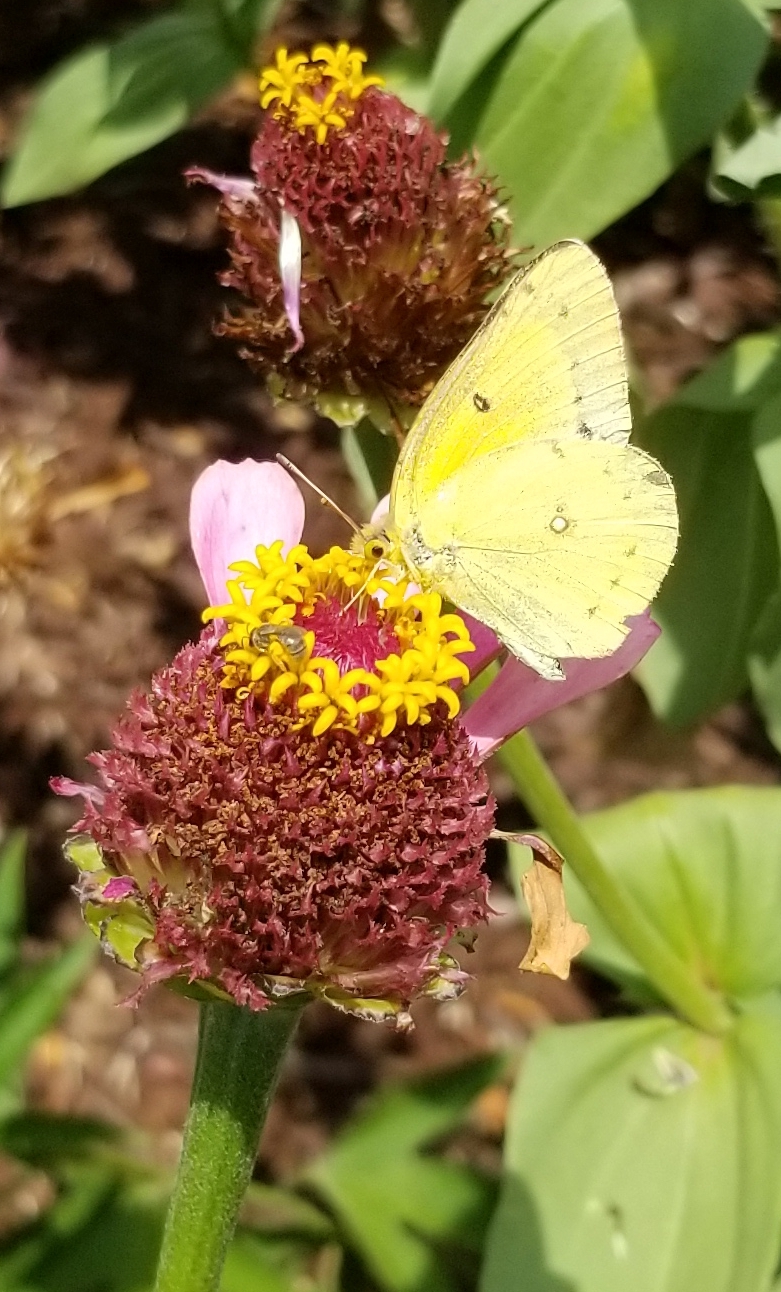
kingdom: Animalia
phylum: Arthropoda
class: Insecta
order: Lepidoptera
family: Pieridae
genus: Colias
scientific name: Colias eurytheme
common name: Alfalfa butterfly
